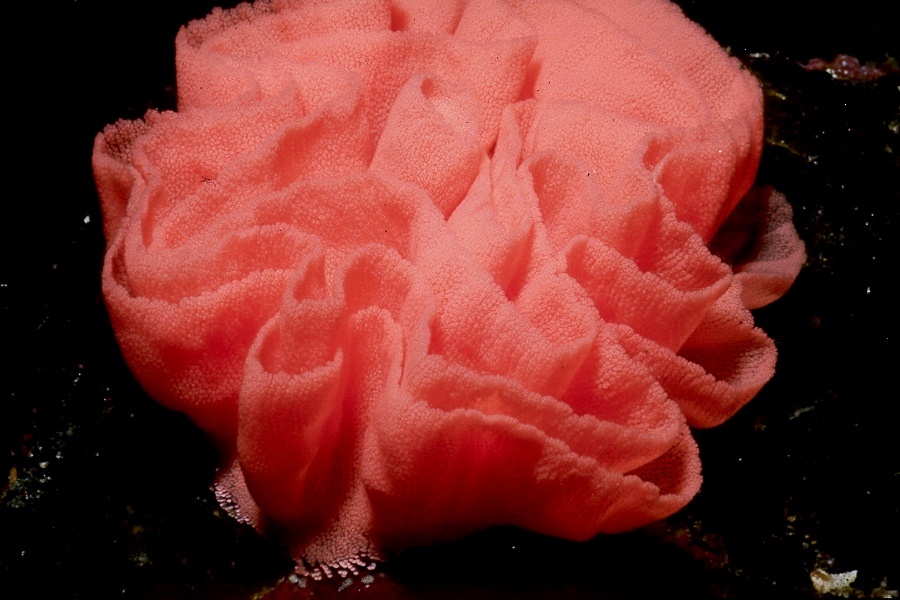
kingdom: Animalia
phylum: Mollusca
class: Gastropoda
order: Nudibranchia
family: Hexabranchidae
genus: Hexabranchus
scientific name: Hexabranchus sanguineus
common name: Spanish dancer
